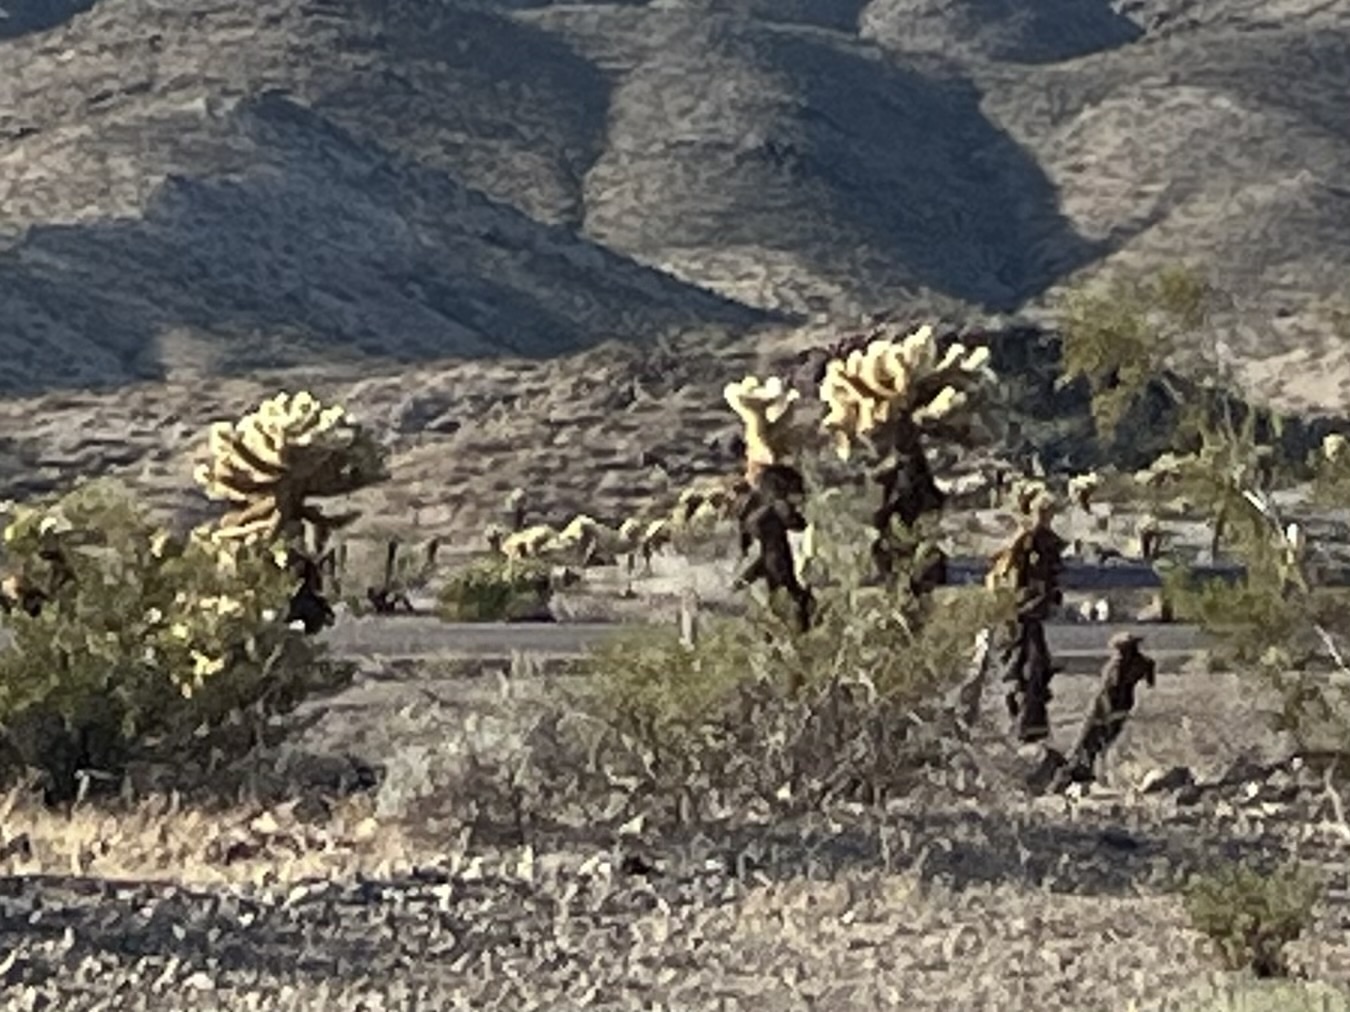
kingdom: Plantae
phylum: Tracheophyta
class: Magnoliopsida
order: Caryophyllales
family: Cactaceae
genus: Cylindropuntia
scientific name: Cylindropuntia fosbergii
